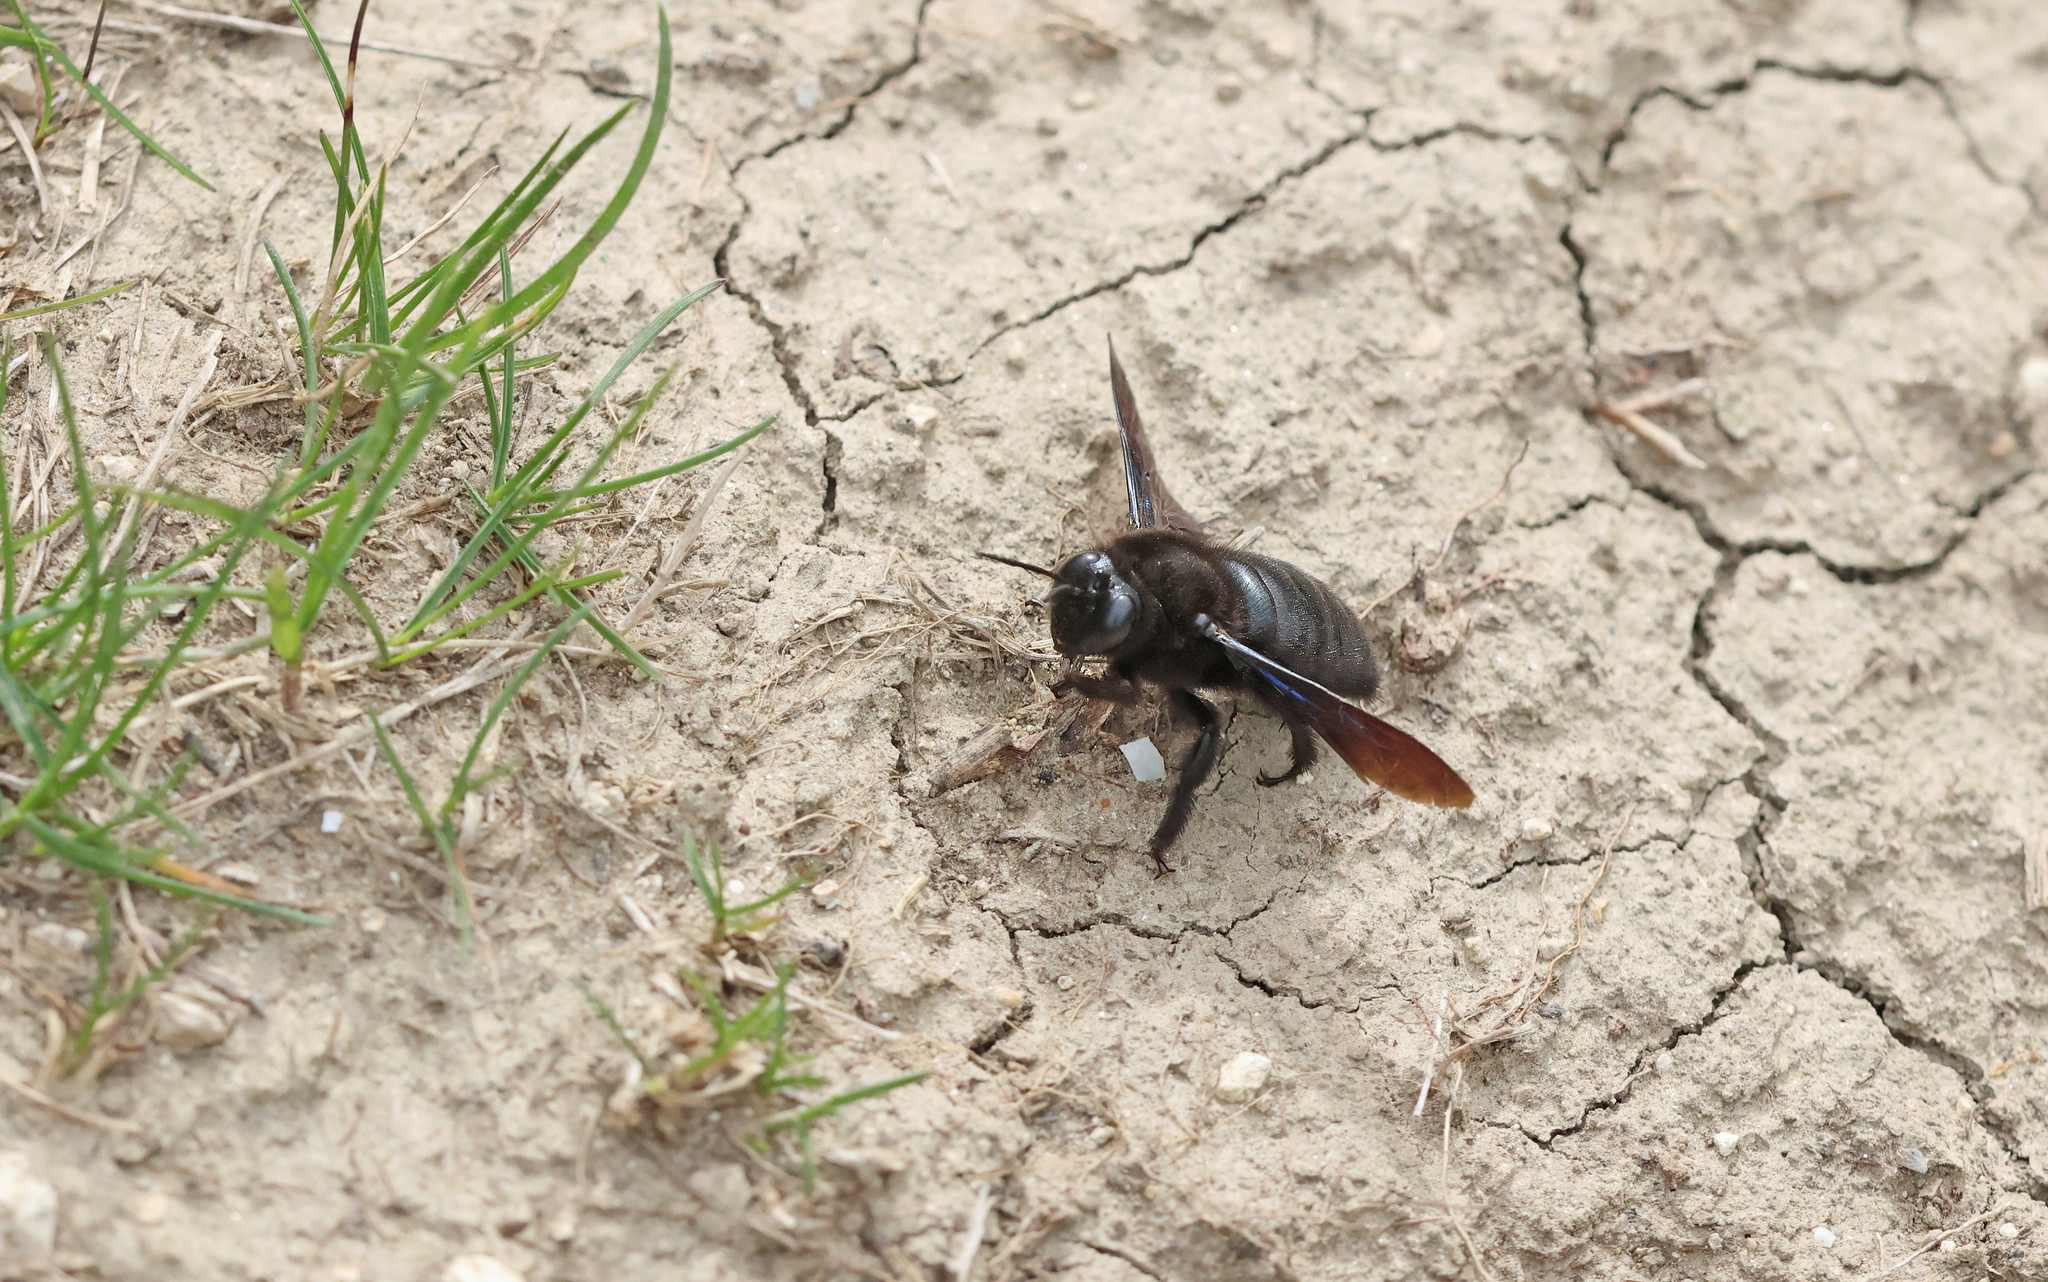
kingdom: Animalia
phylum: Arthropoda
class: Insecta
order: Hymenoptera
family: Apidae
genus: Xylocopa
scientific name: Xylocopa valga
